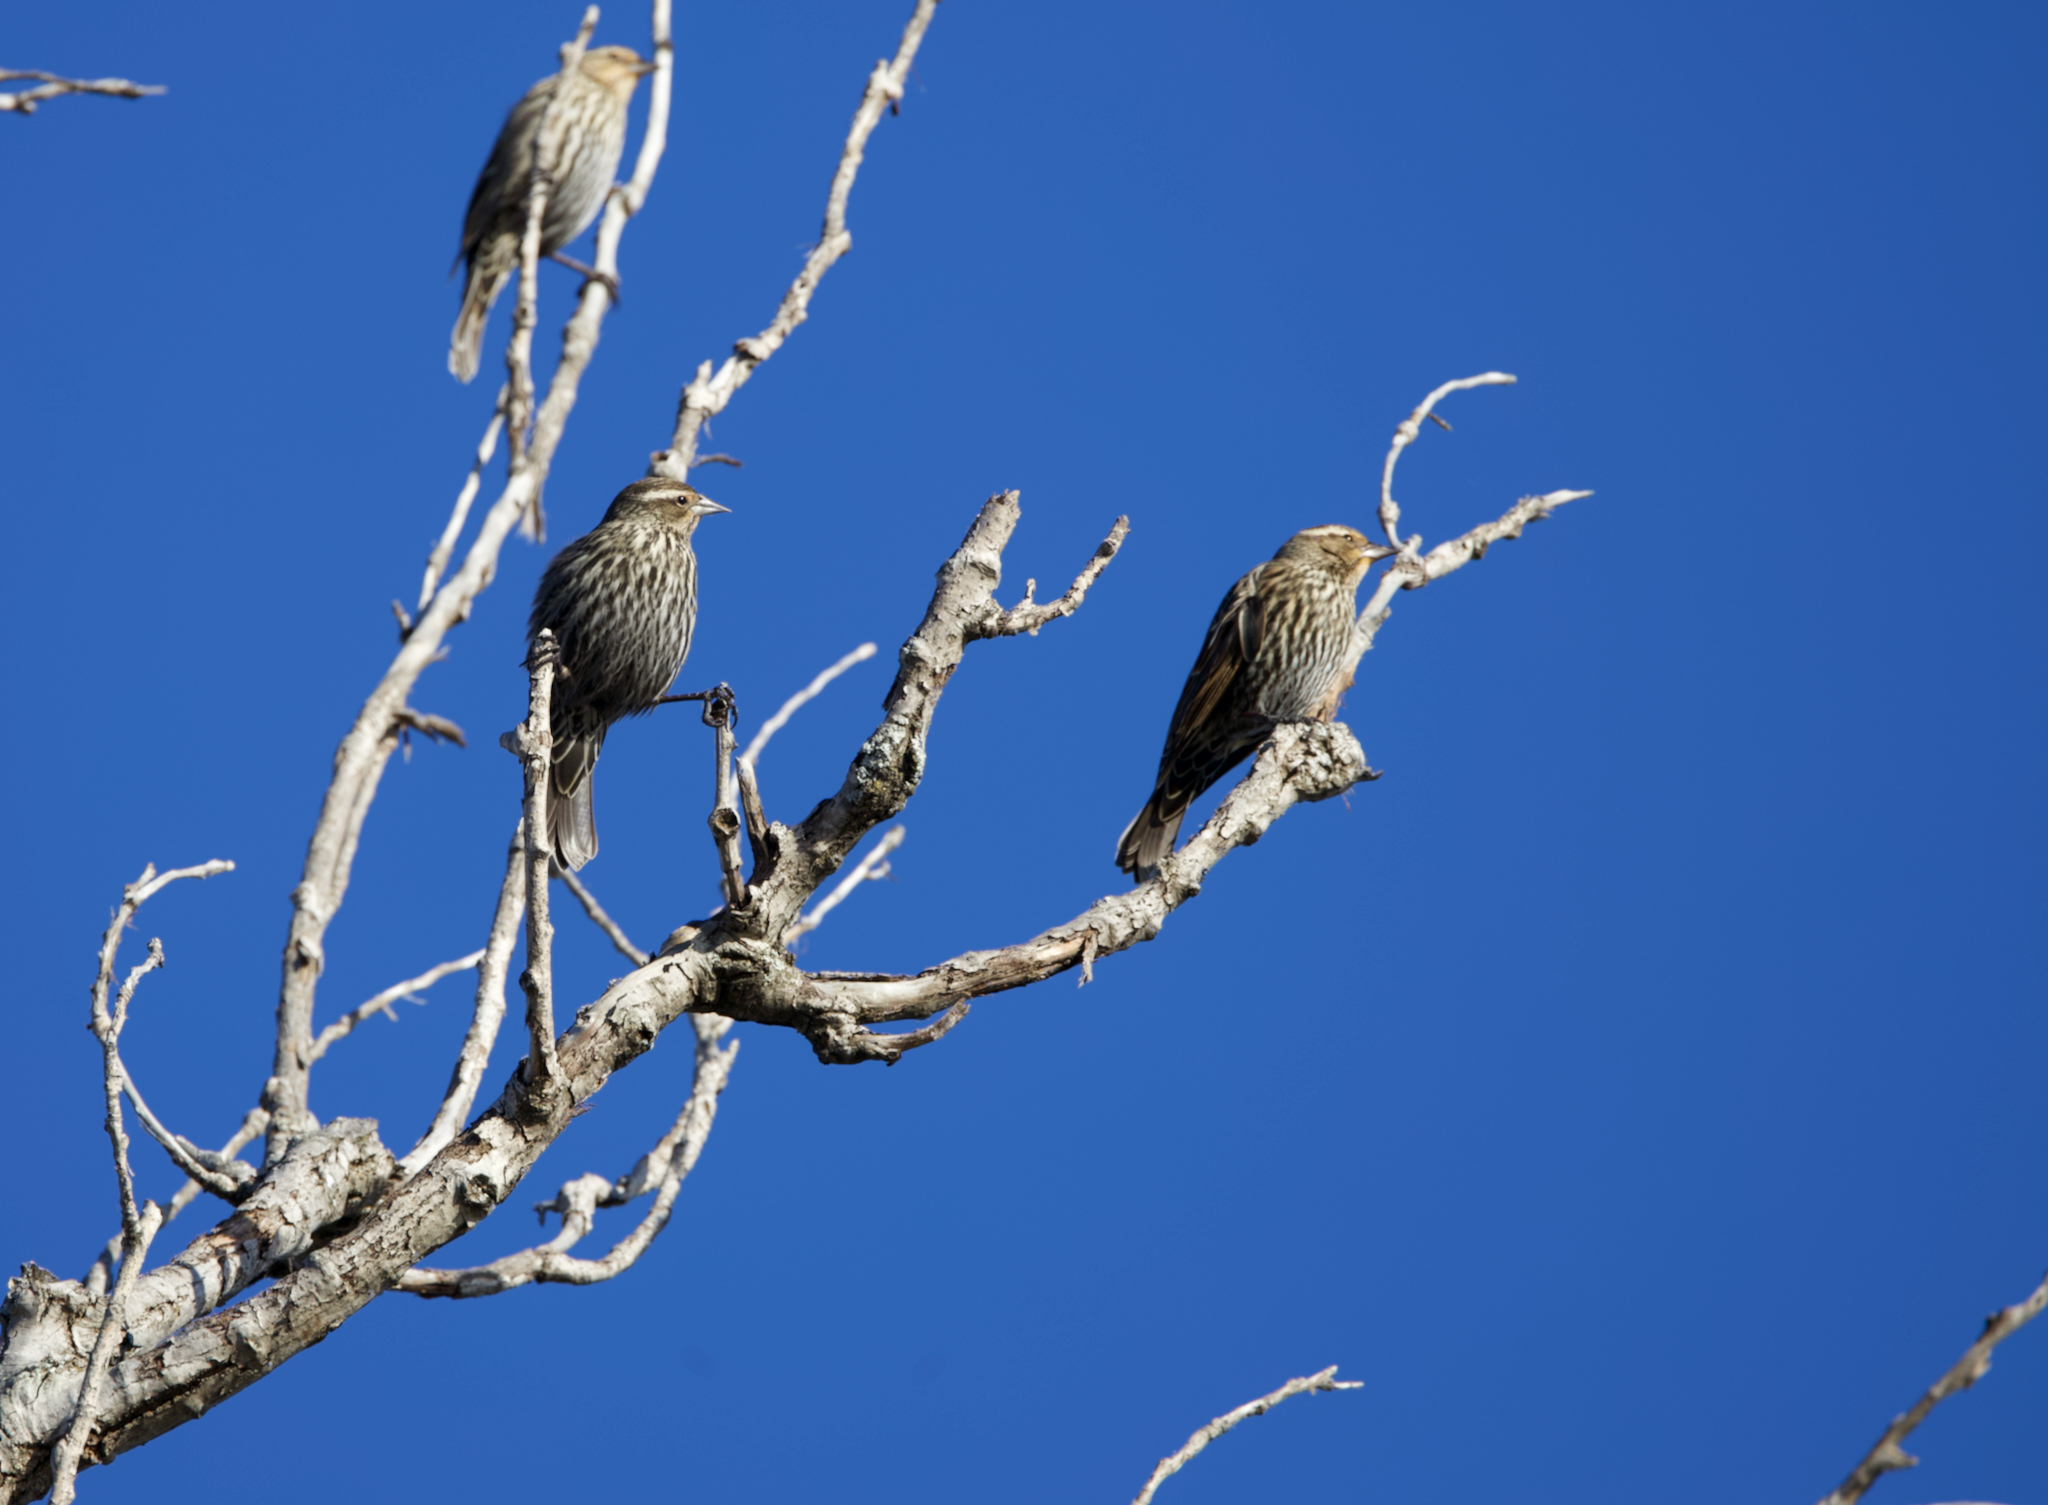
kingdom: Animalia
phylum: Chordata
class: Aves
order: Passeriformes
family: Icteridae
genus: Agelaius
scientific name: Agelaius phoeniceus
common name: Red-winged blackbird
